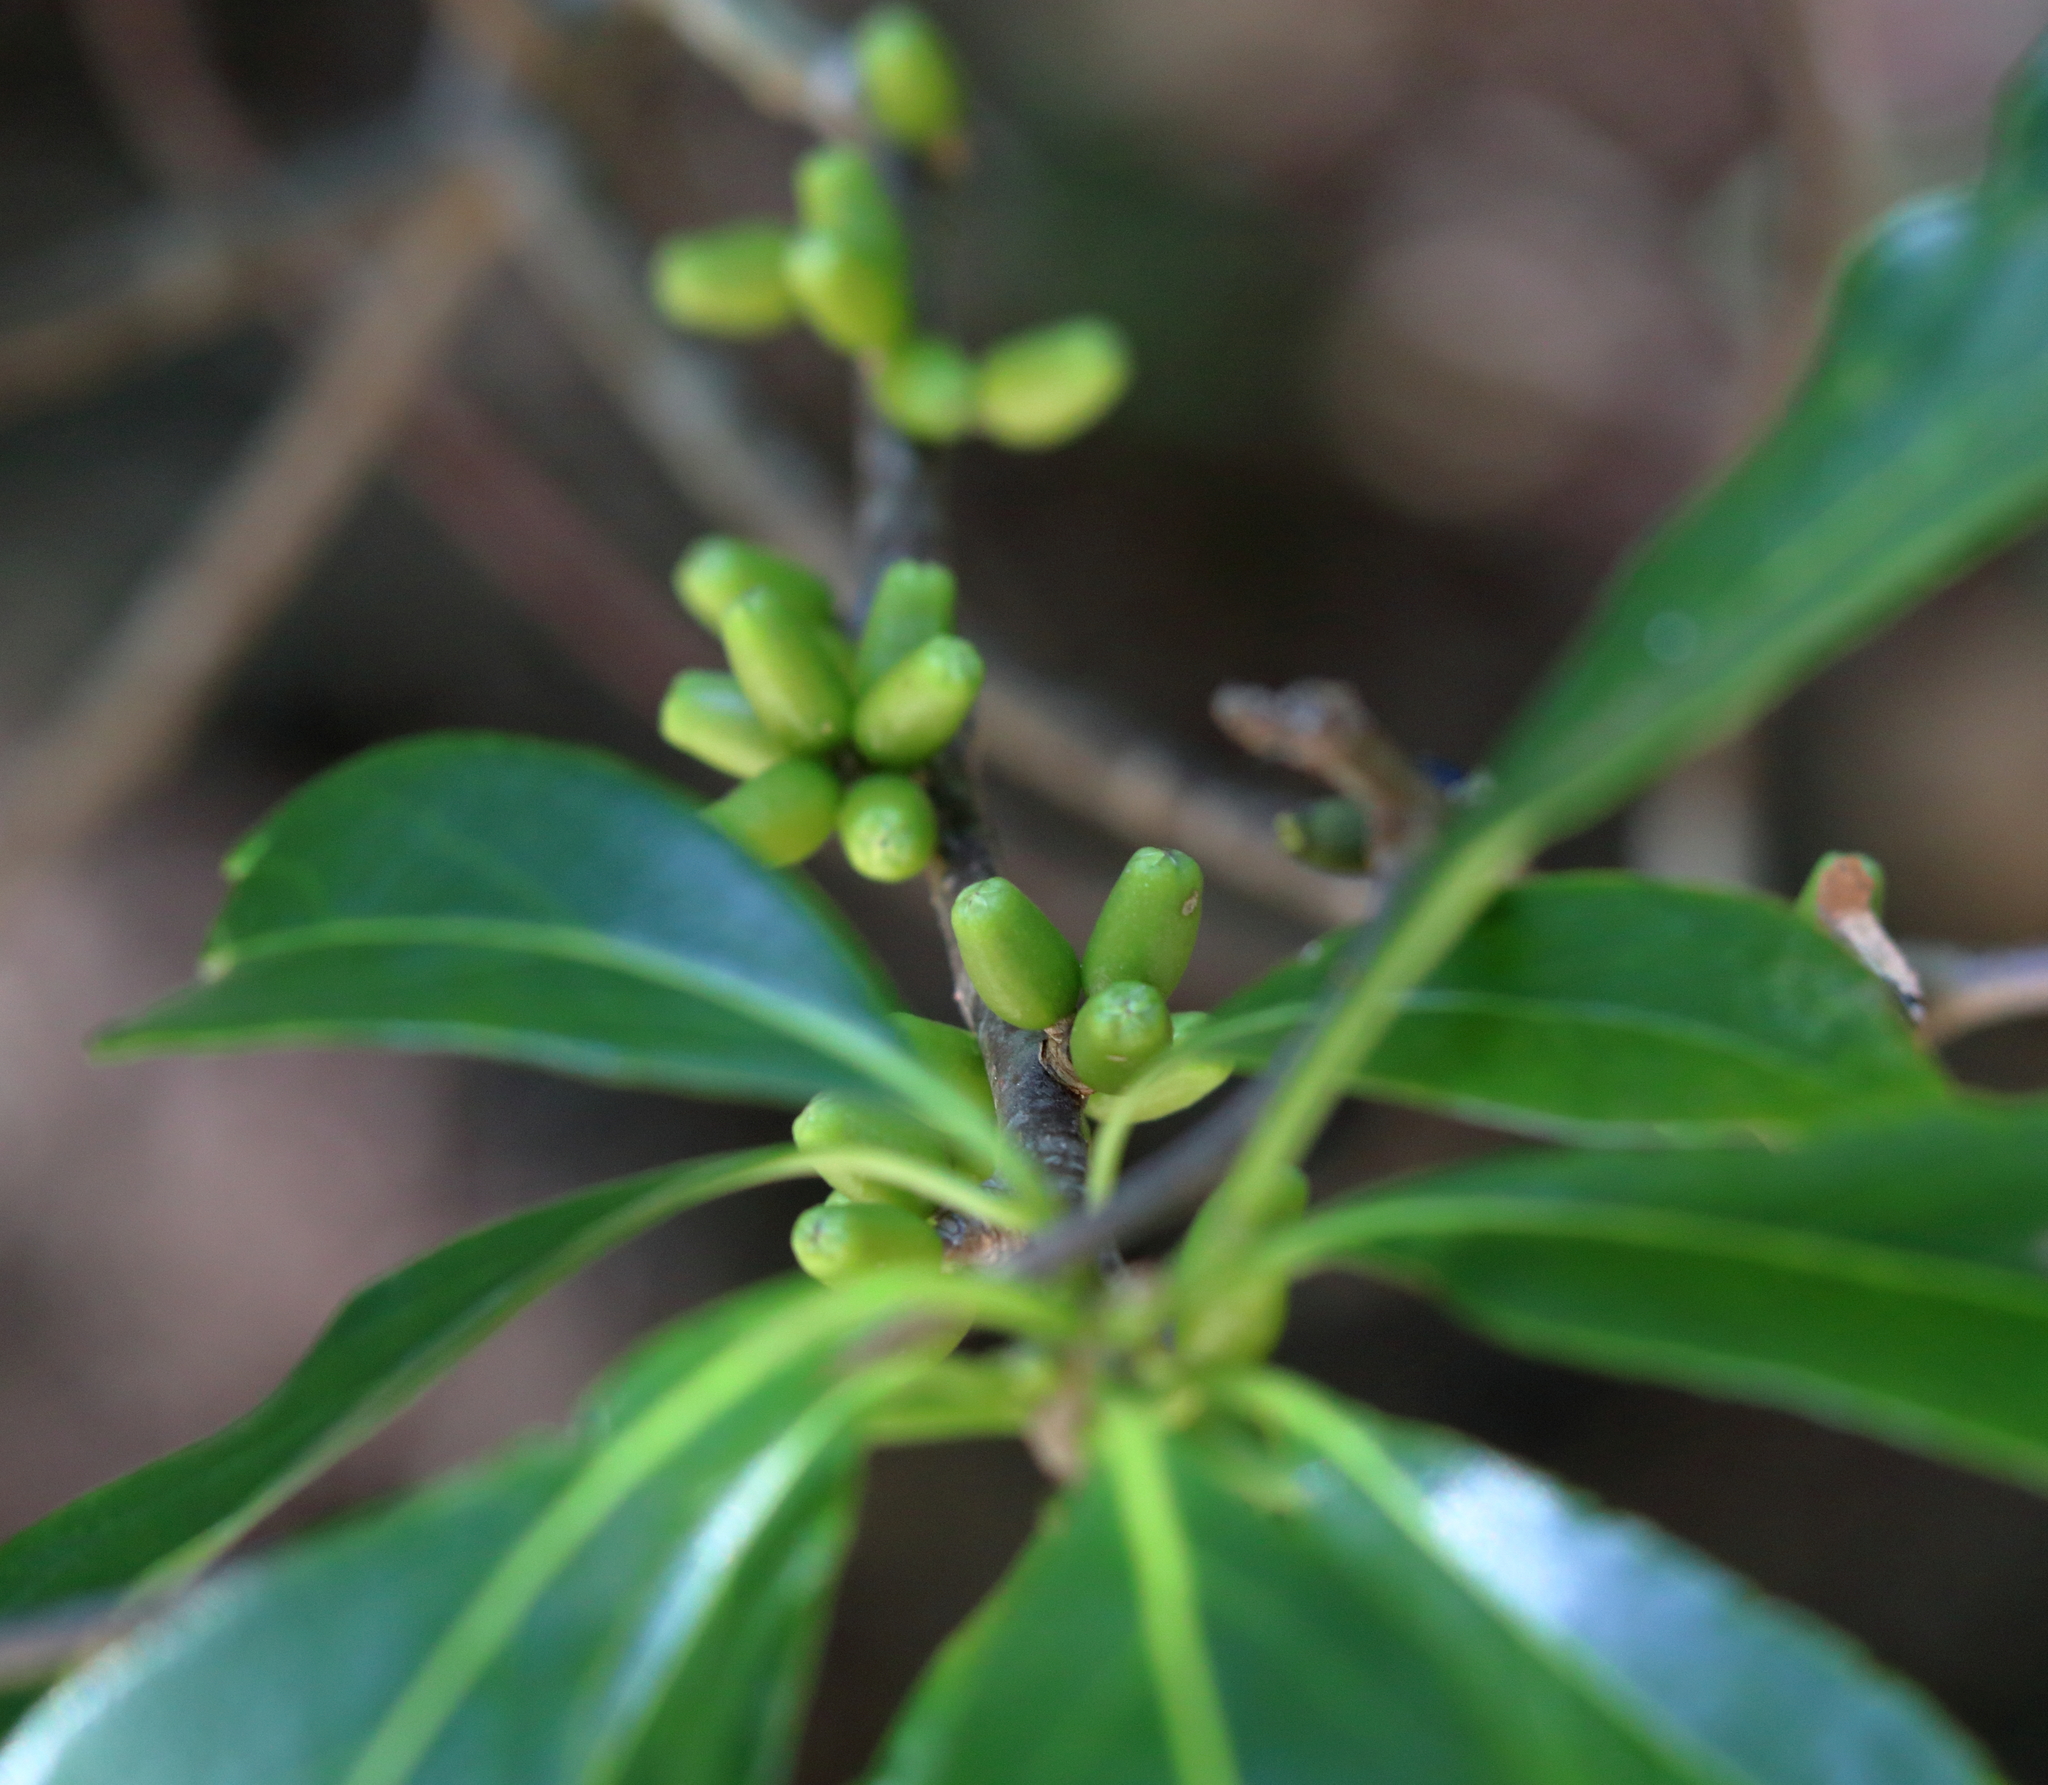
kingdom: Plantae
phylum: Tracheophyta
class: Magnoliopsida
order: Ericales
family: Symplocaceae
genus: Symplocos
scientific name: Symplocos tinctoria
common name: Horse-sugar
